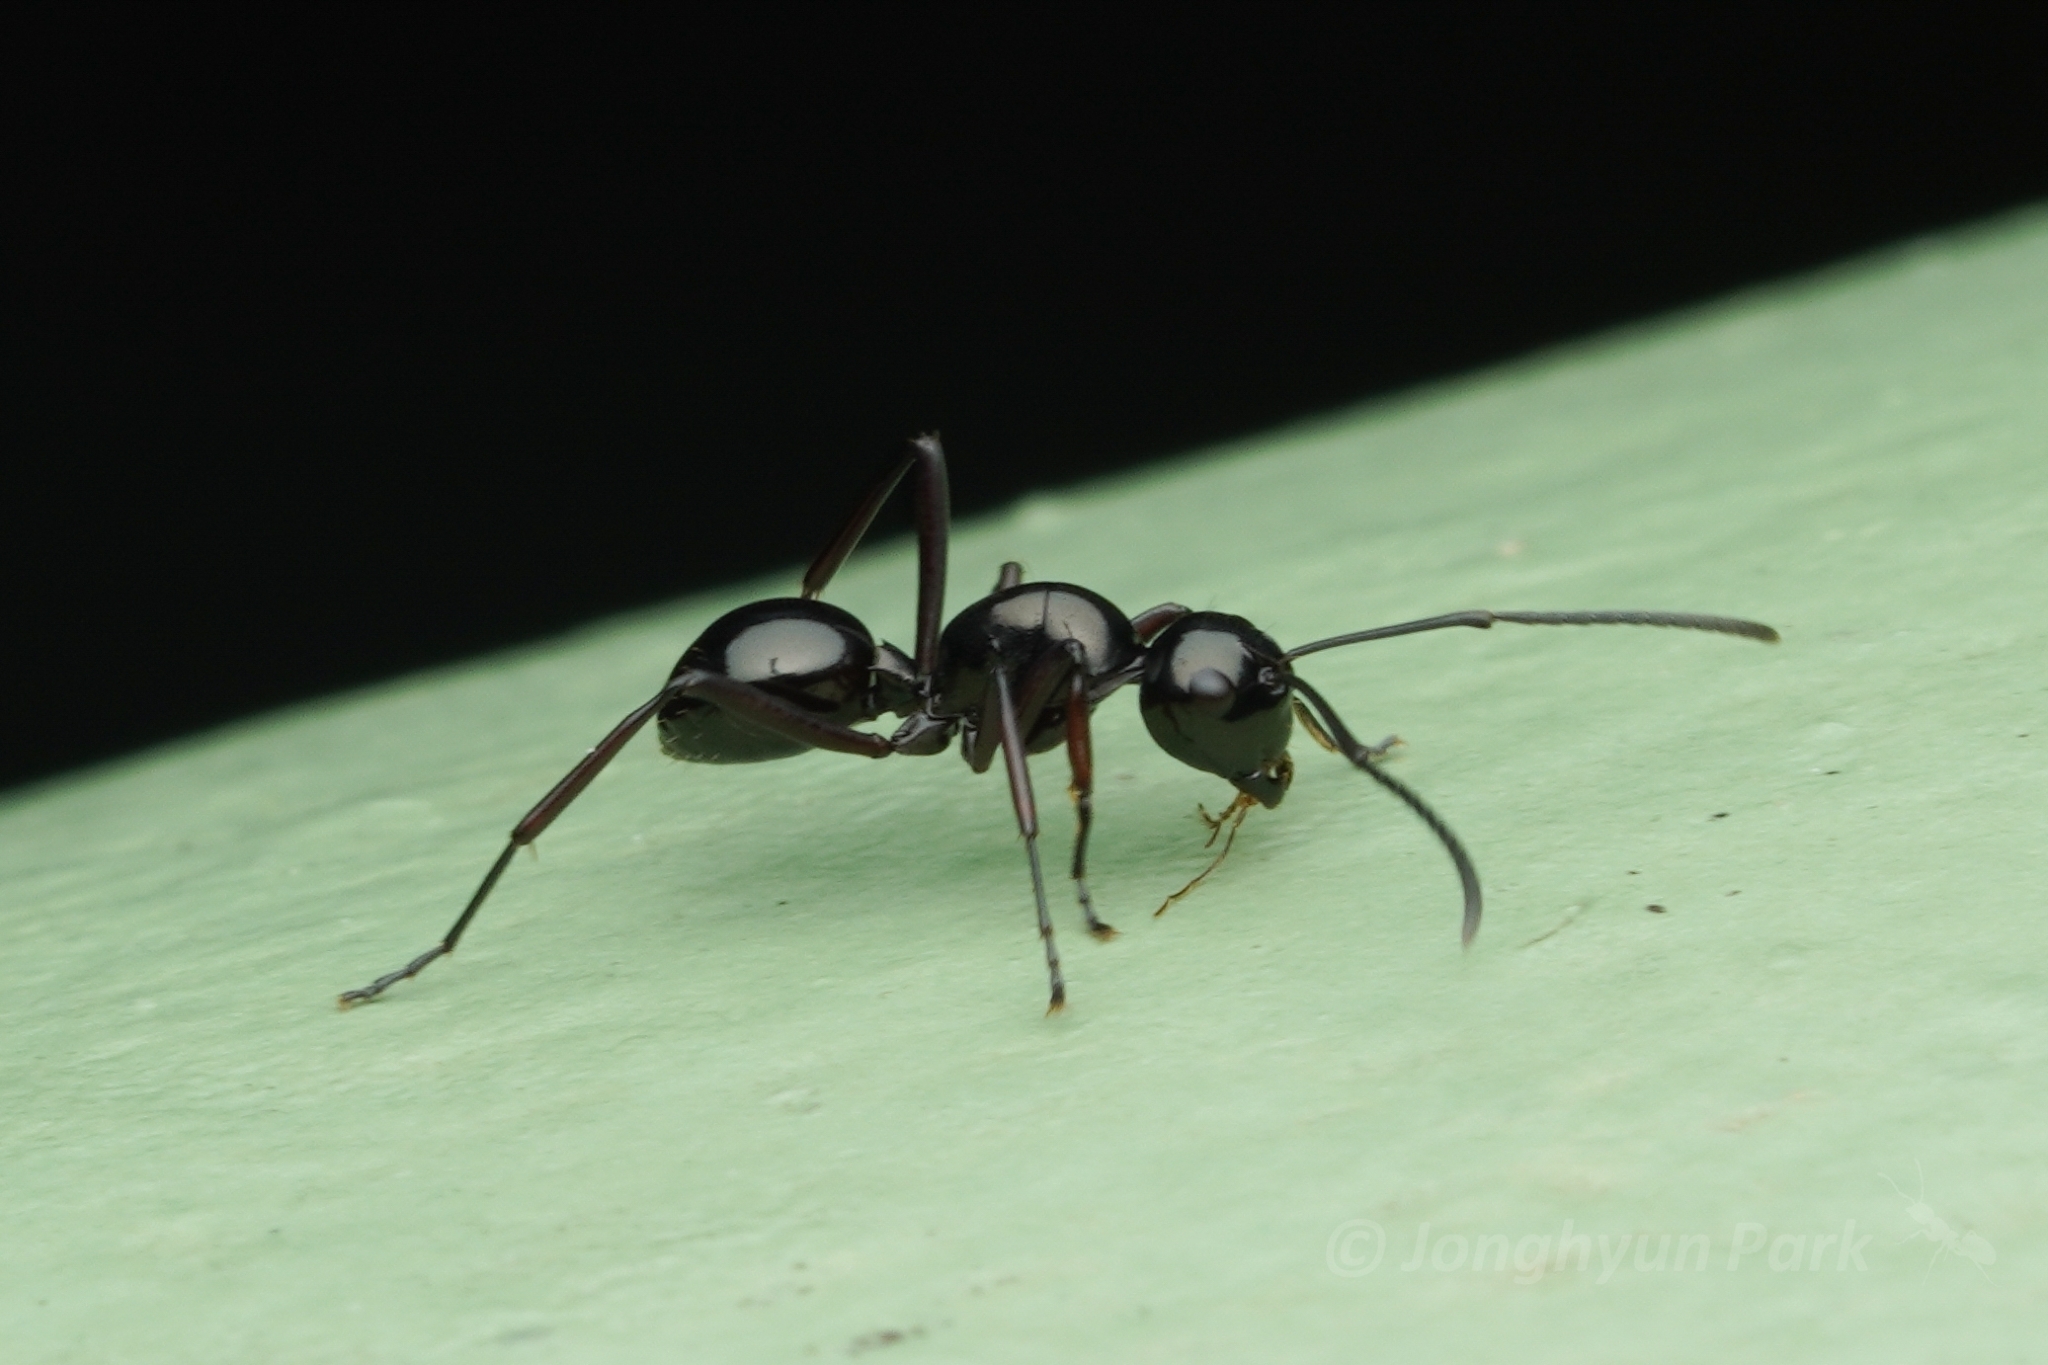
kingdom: Animalia
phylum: Arthropoda
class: Insecta
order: Hymenoptera
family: Formicidae
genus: Polyrhachis
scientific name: Polyrhachis lepida
